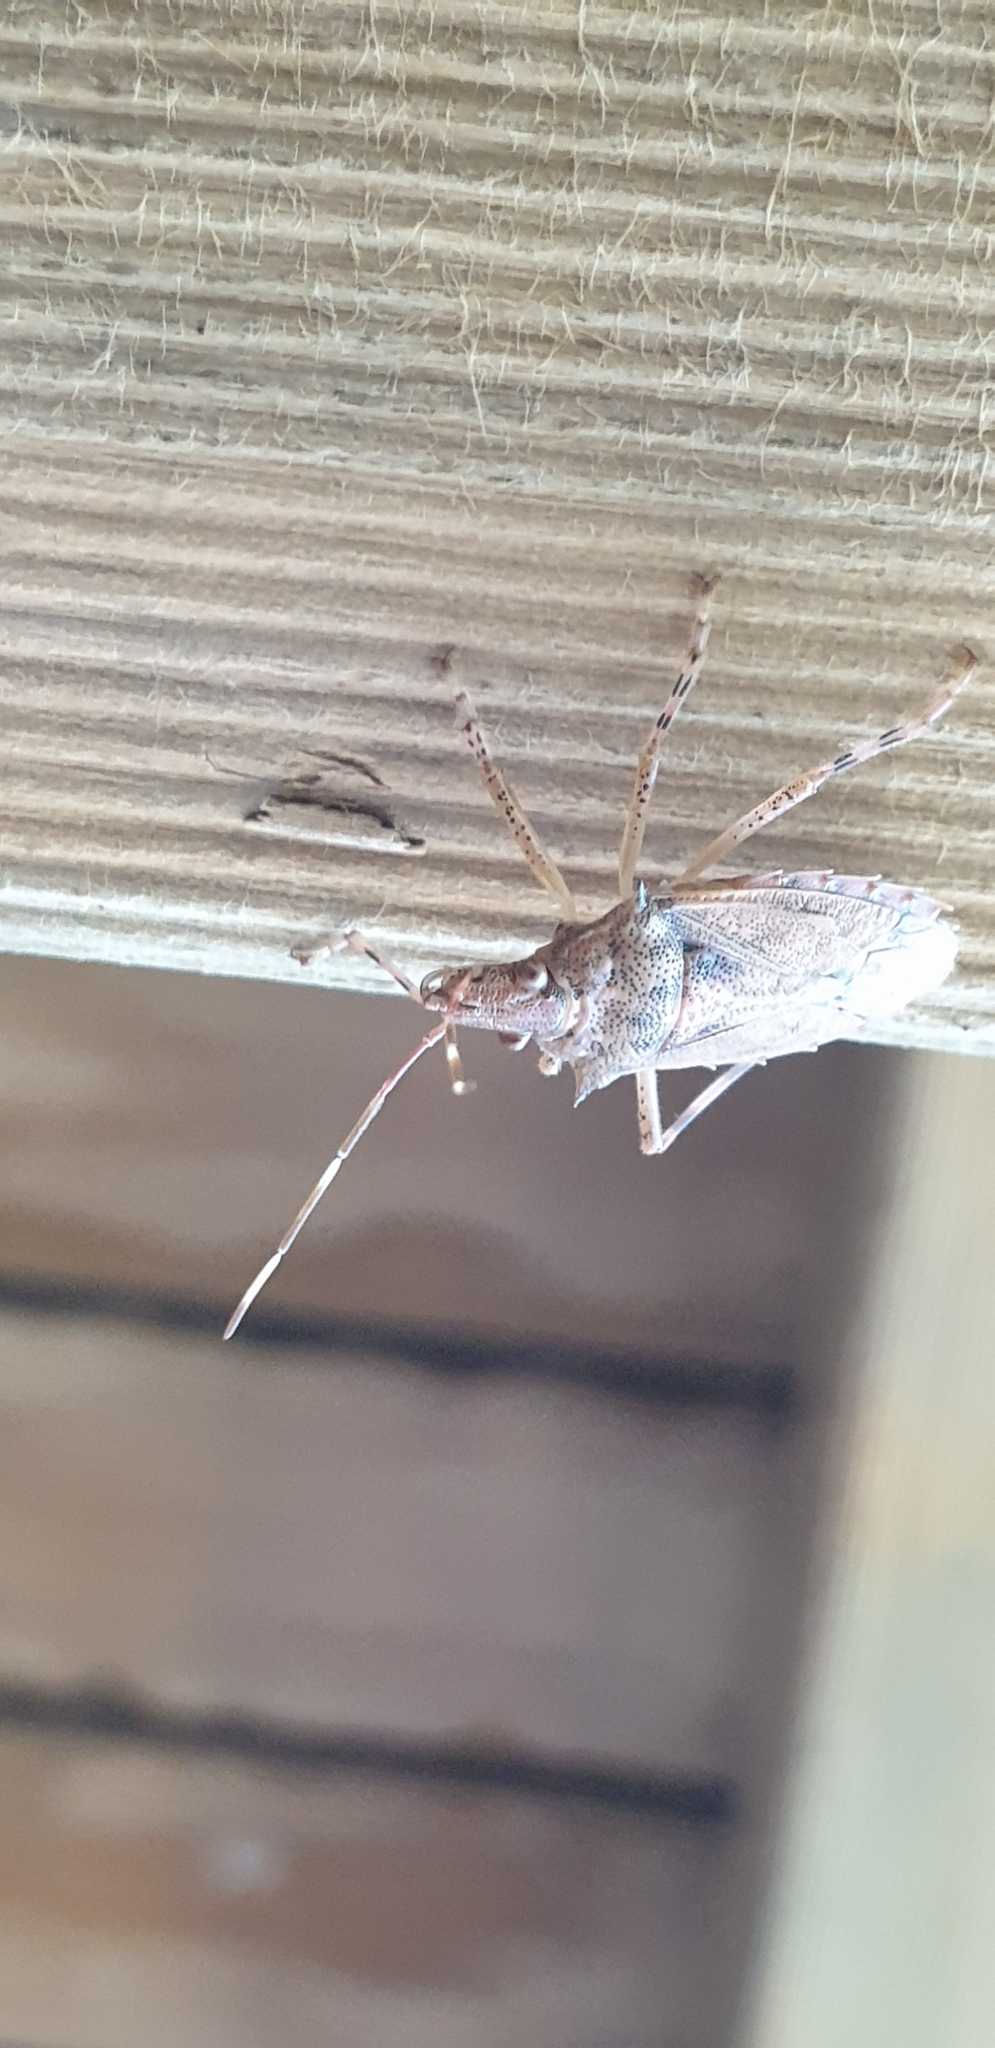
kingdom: Animalia
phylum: Arthropoda
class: Insecta
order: Hemiptera
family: Pentatomidae
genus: Bromocoris
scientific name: Bromocoris
